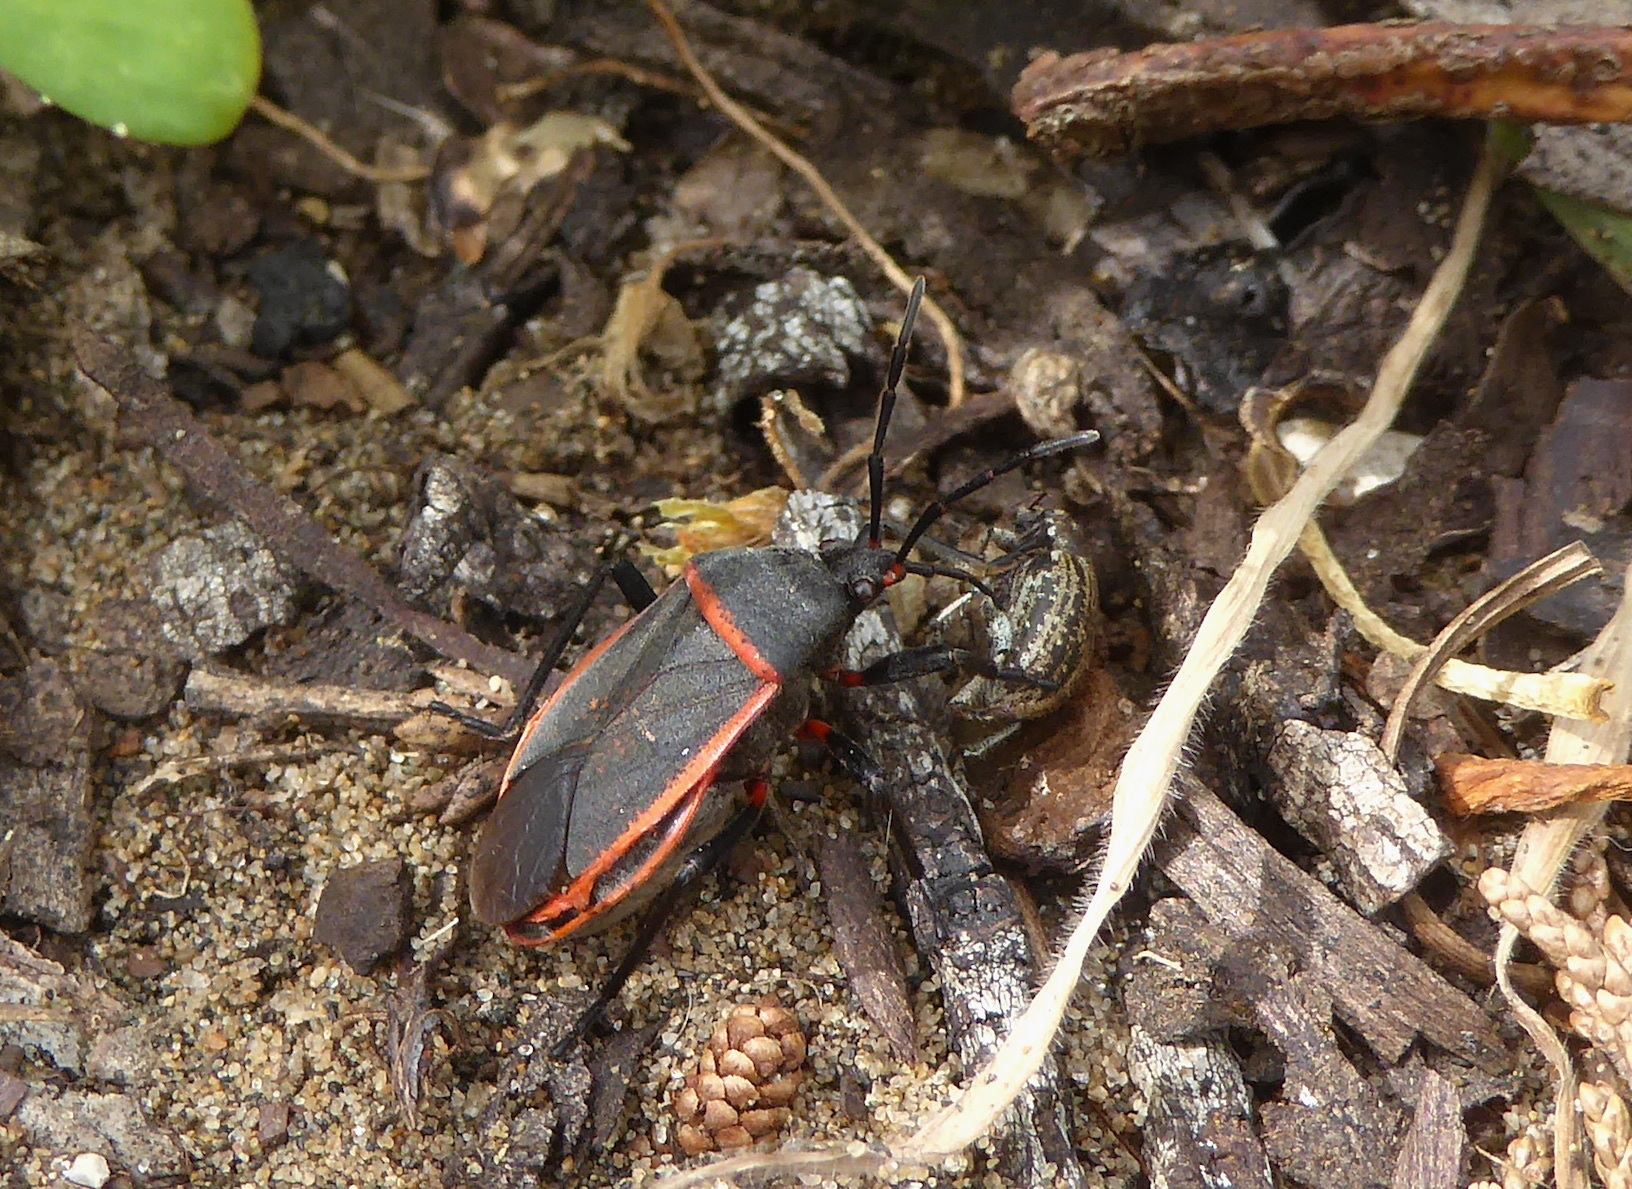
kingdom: Animalia
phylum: Arthropoda
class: Insecta
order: Hemiptera
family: Largidae
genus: Largus
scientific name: Largus californicus
